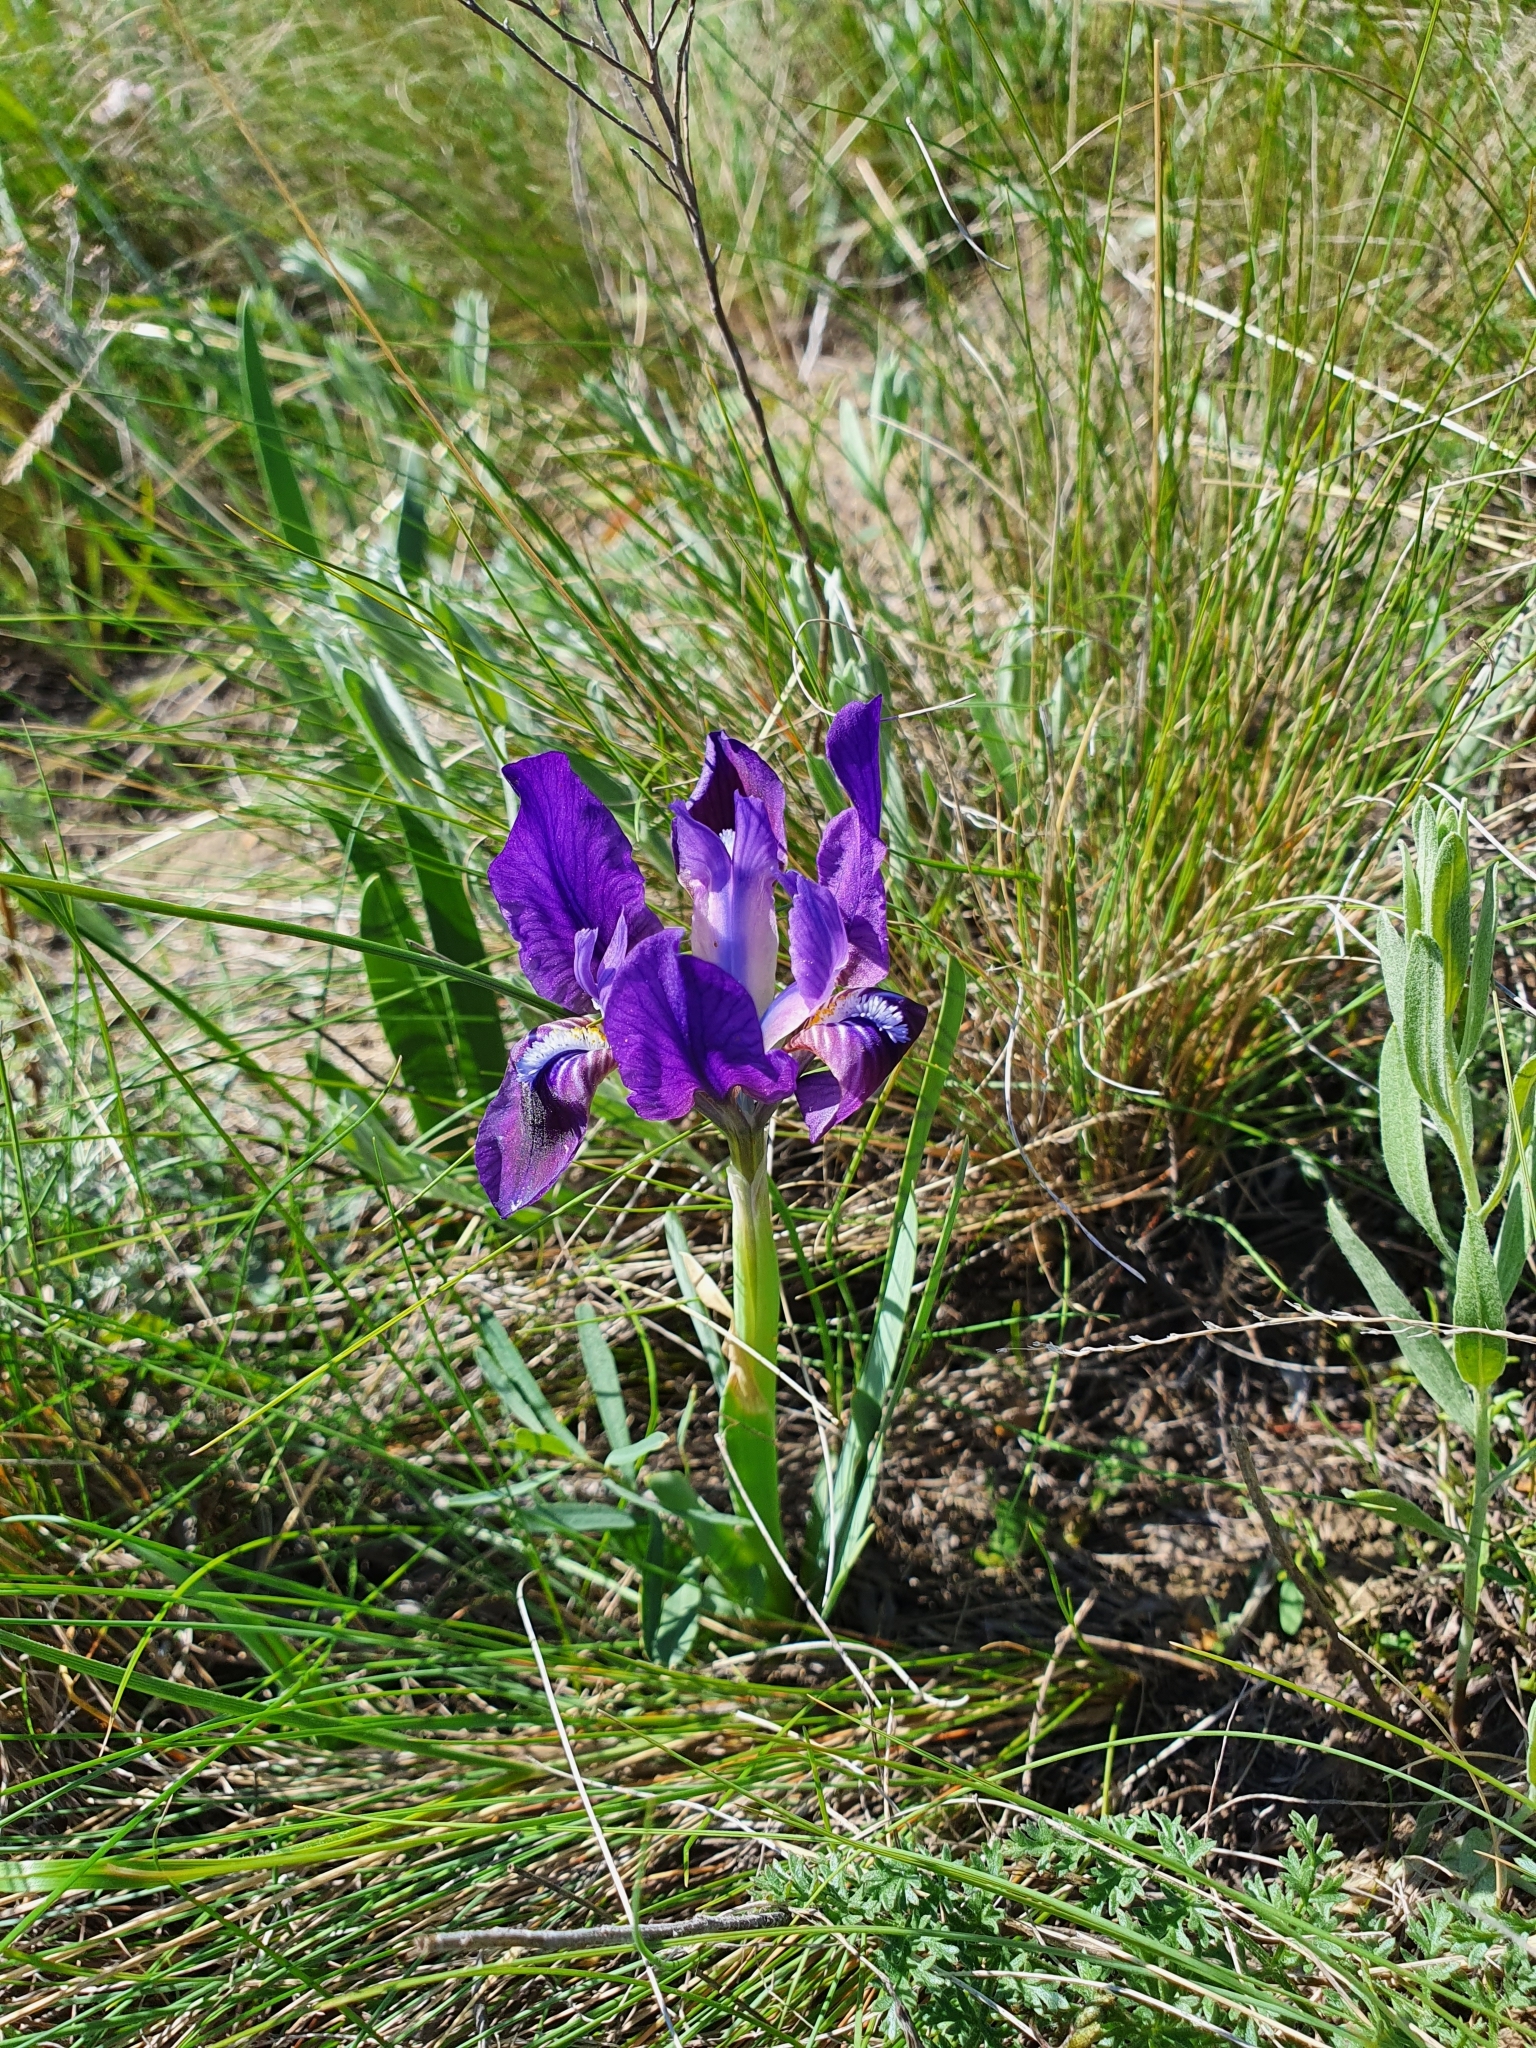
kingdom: Plantae
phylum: Tracheophyta
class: Liliopsida
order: Asparagales
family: Iridaceae
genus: Iris
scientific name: Iris pumila
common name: Dwarf iris
